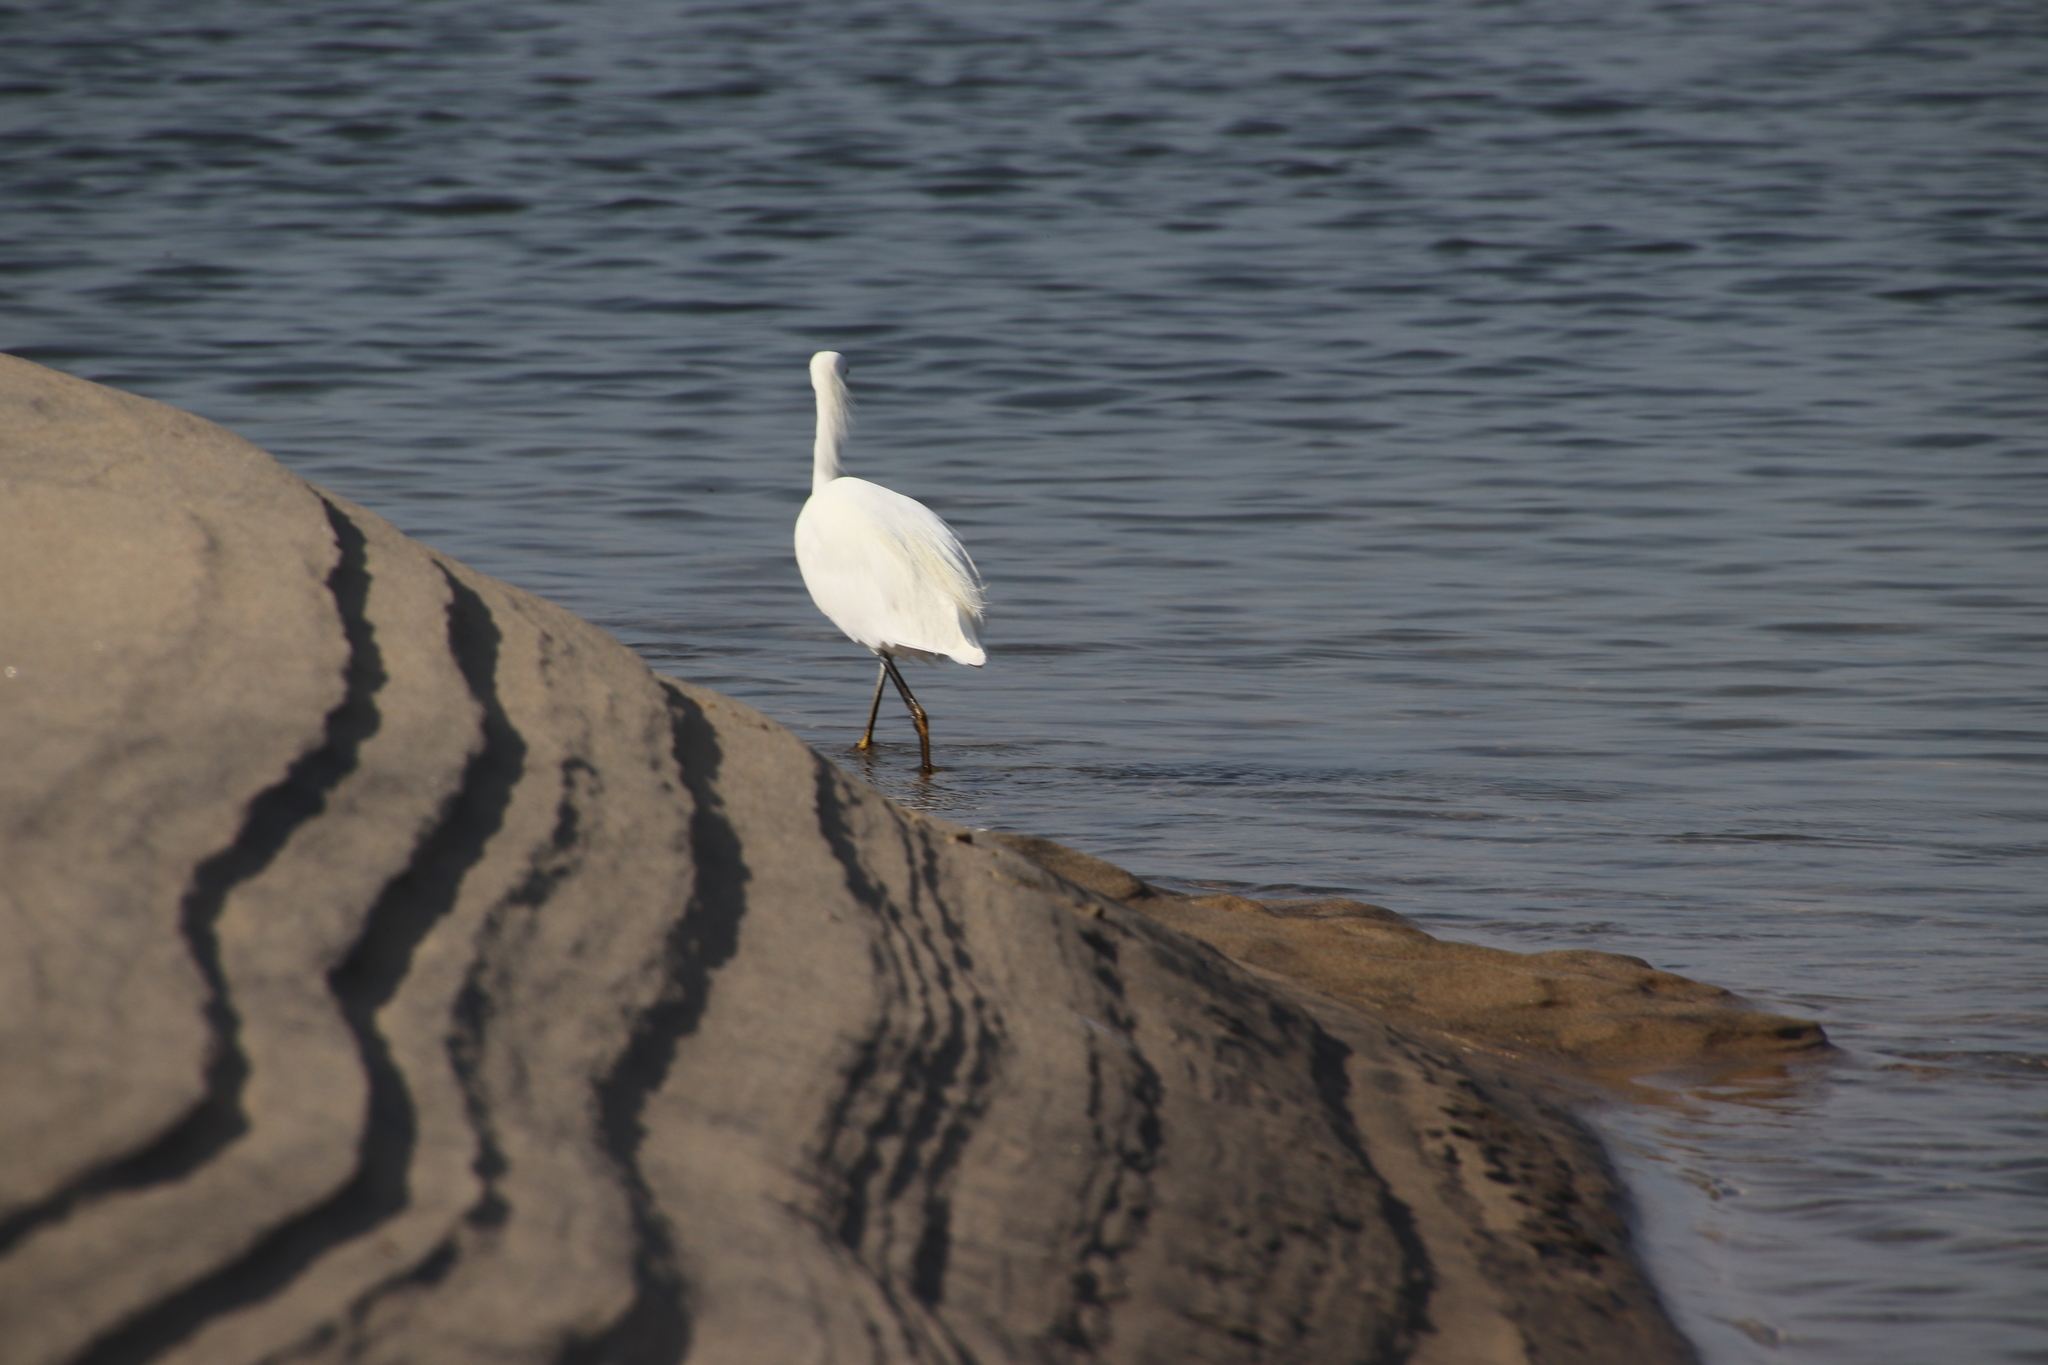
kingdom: Animalia
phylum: Chordata
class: Aves
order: Pelecaniformes
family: Ardeidae
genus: Egretta
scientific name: Egretta thula
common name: Snowy egret
